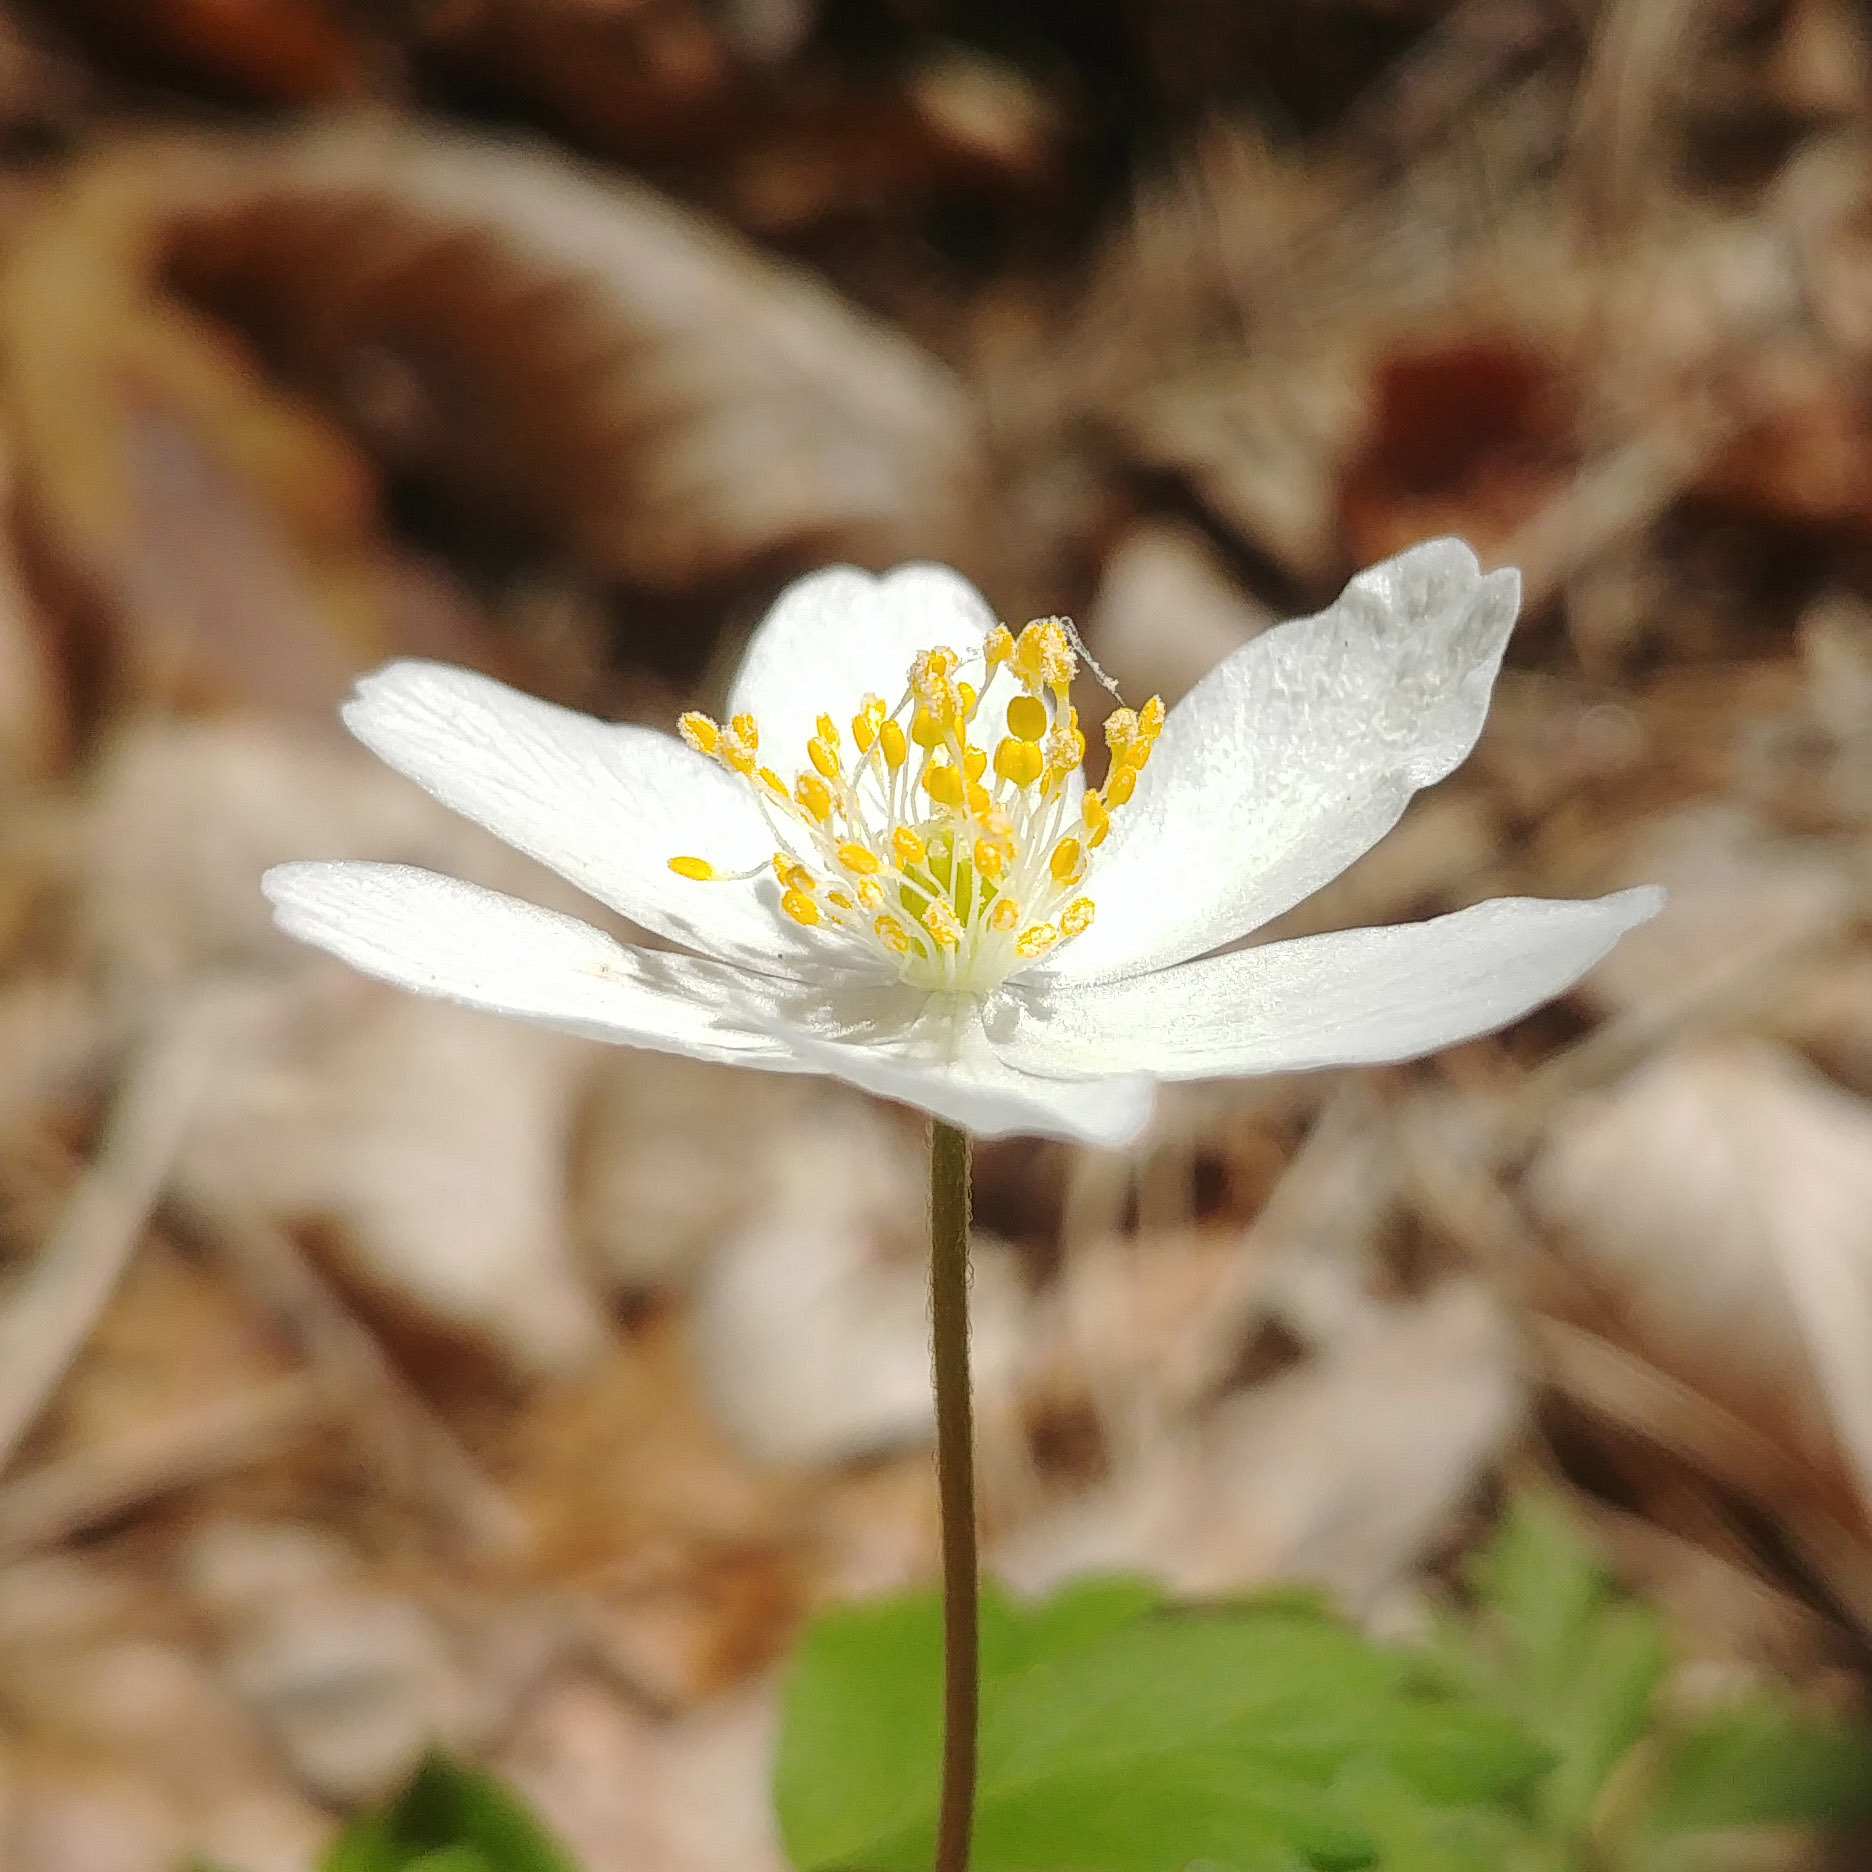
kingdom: Plantae
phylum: Tracheophyta
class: Magnoliopsida
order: Ranunculales
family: Ranunculaceae
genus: Anemone
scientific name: Anemone nemorosa
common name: Wood anemone
